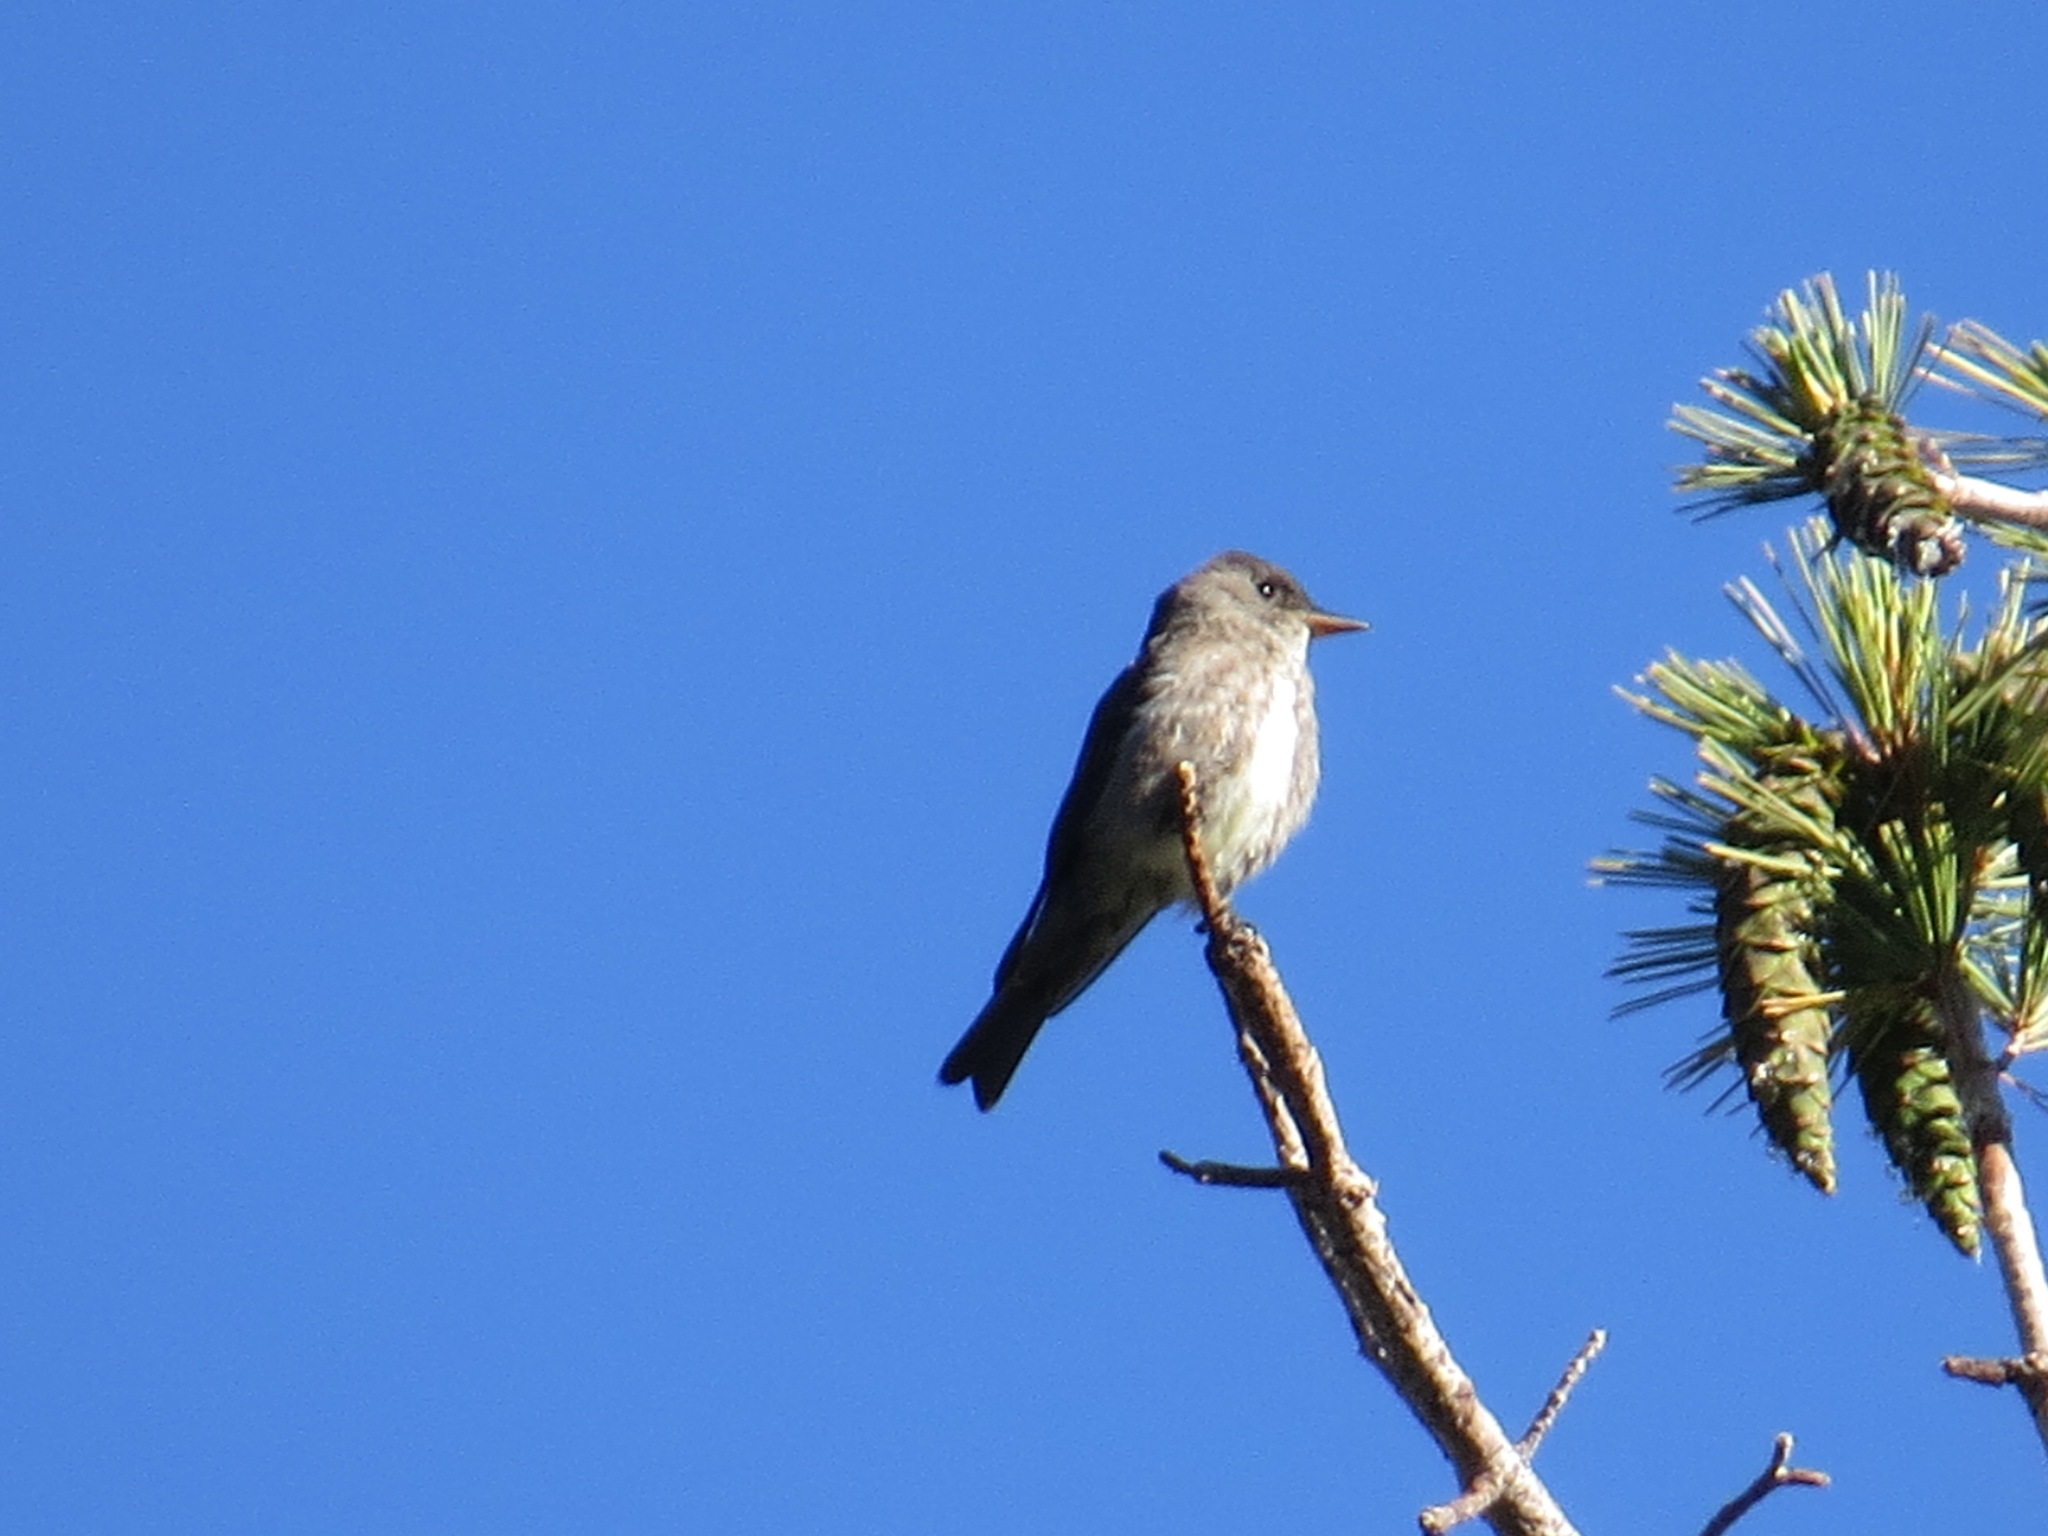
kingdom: Animalia
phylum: Chordata
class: Aves
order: Passeriformes
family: Tyrannidae
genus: Contopus
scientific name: Contopus cooperi
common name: Olive-sided flycatcher
